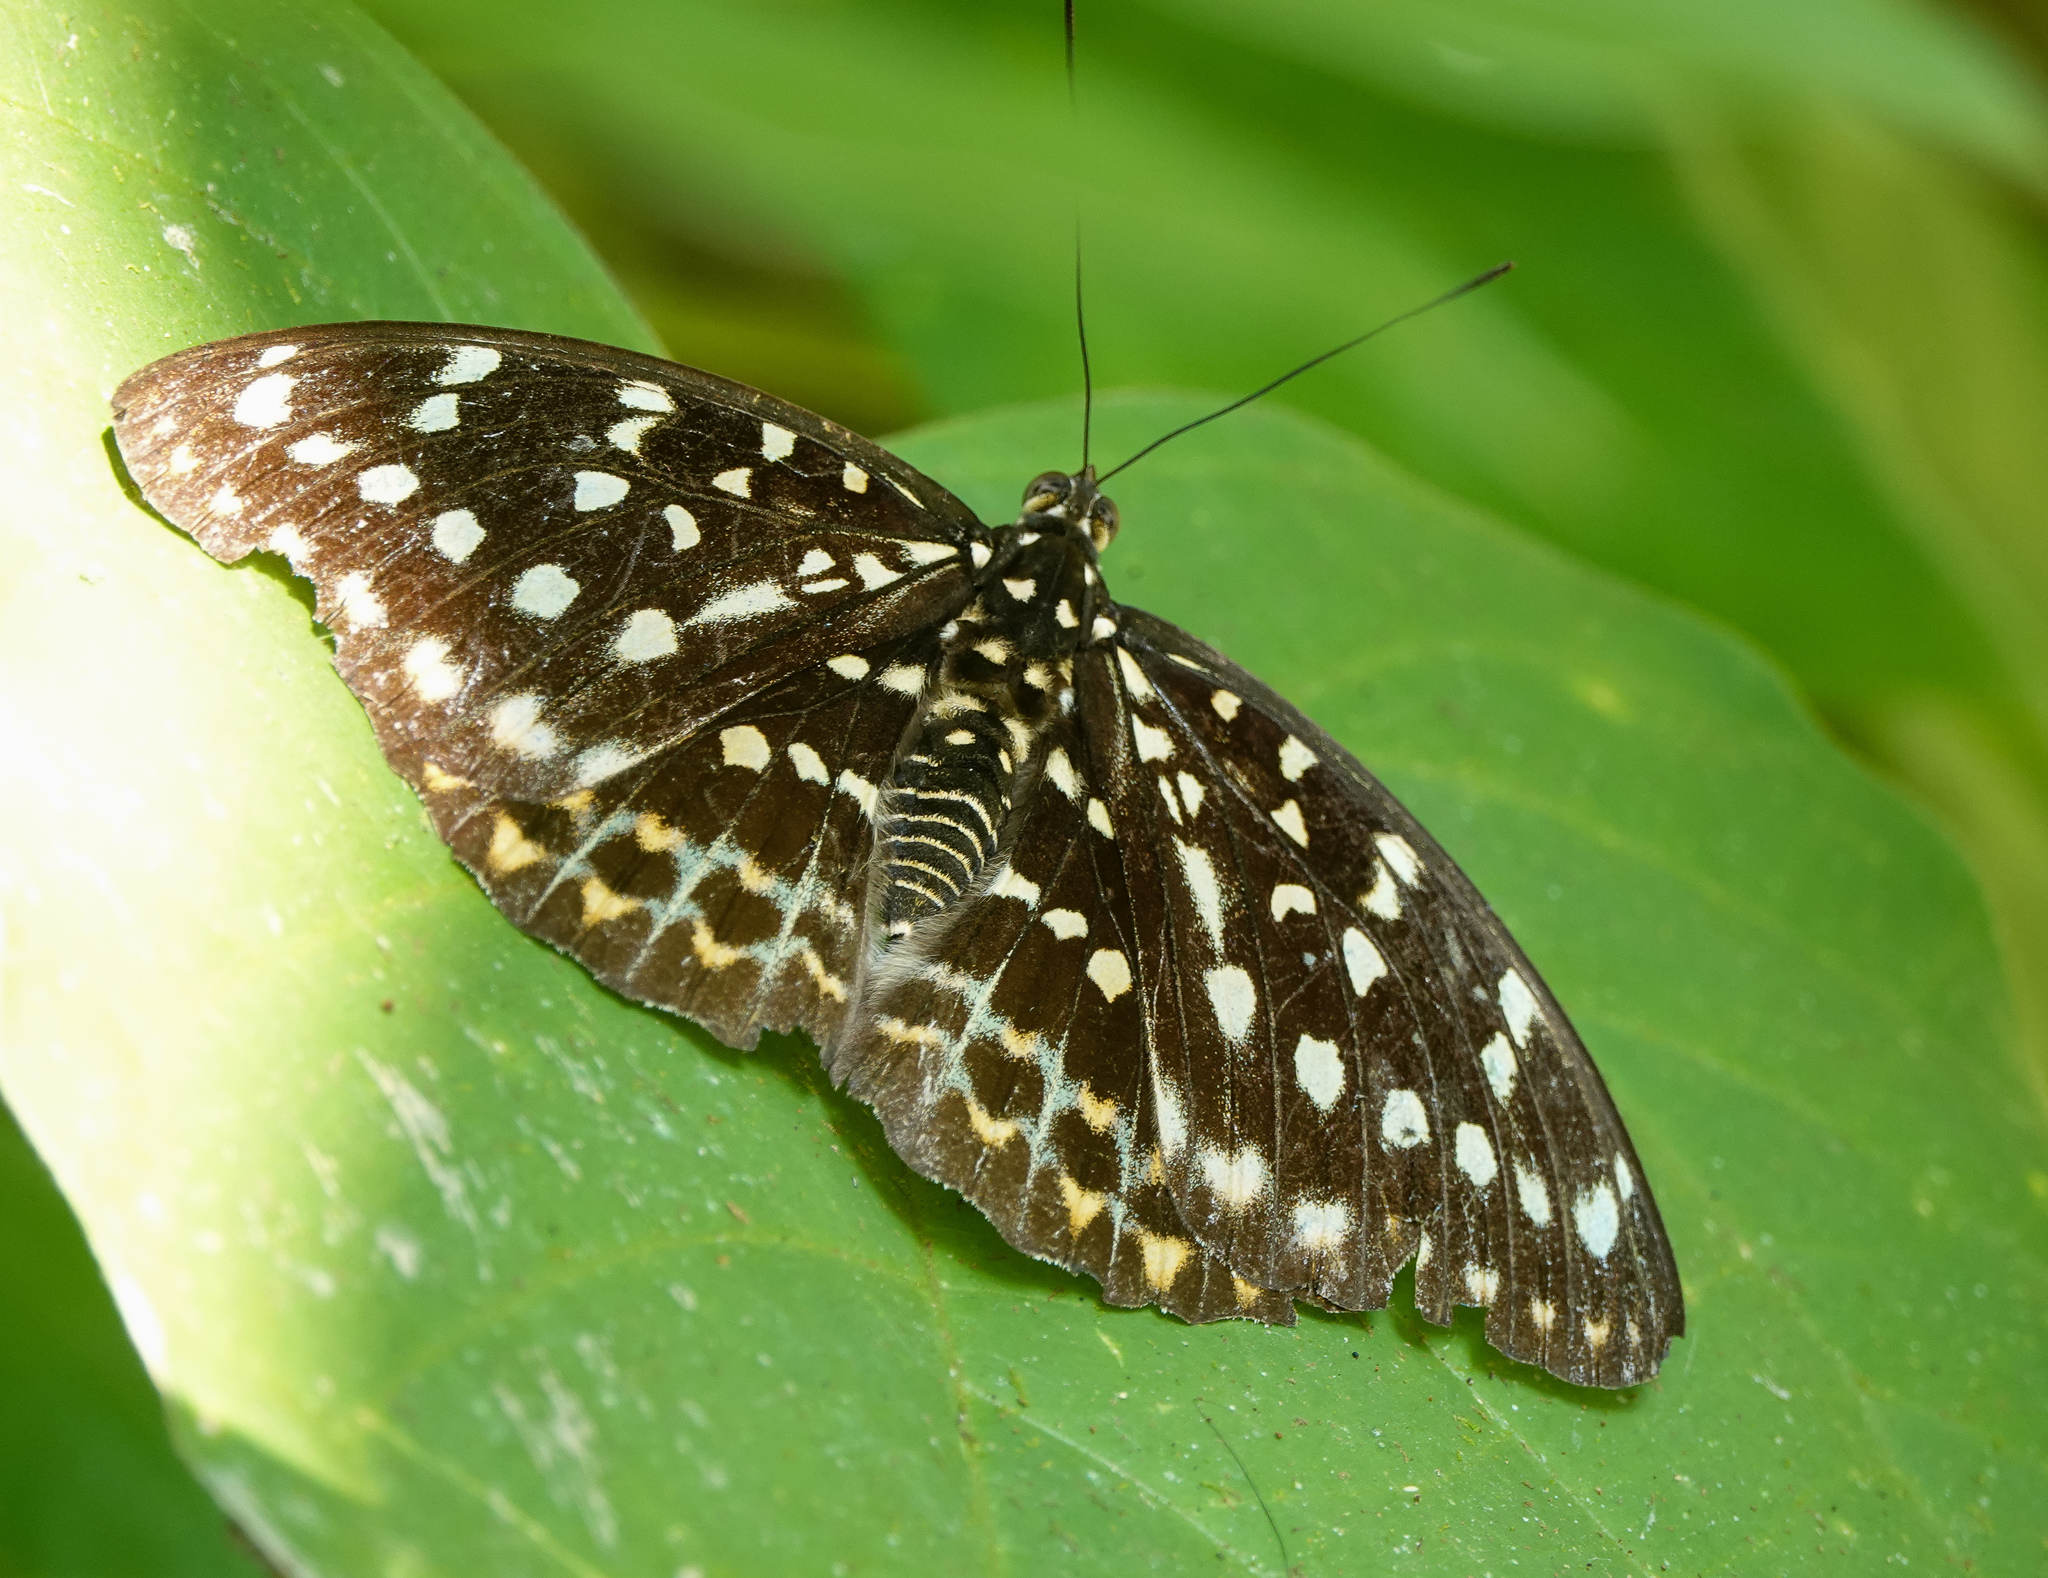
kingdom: Animalia
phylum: Arthropoda
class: Insecta
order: Lepidoptera
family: Nymphalidae
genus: Lexias
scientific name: Lexias pardalis
